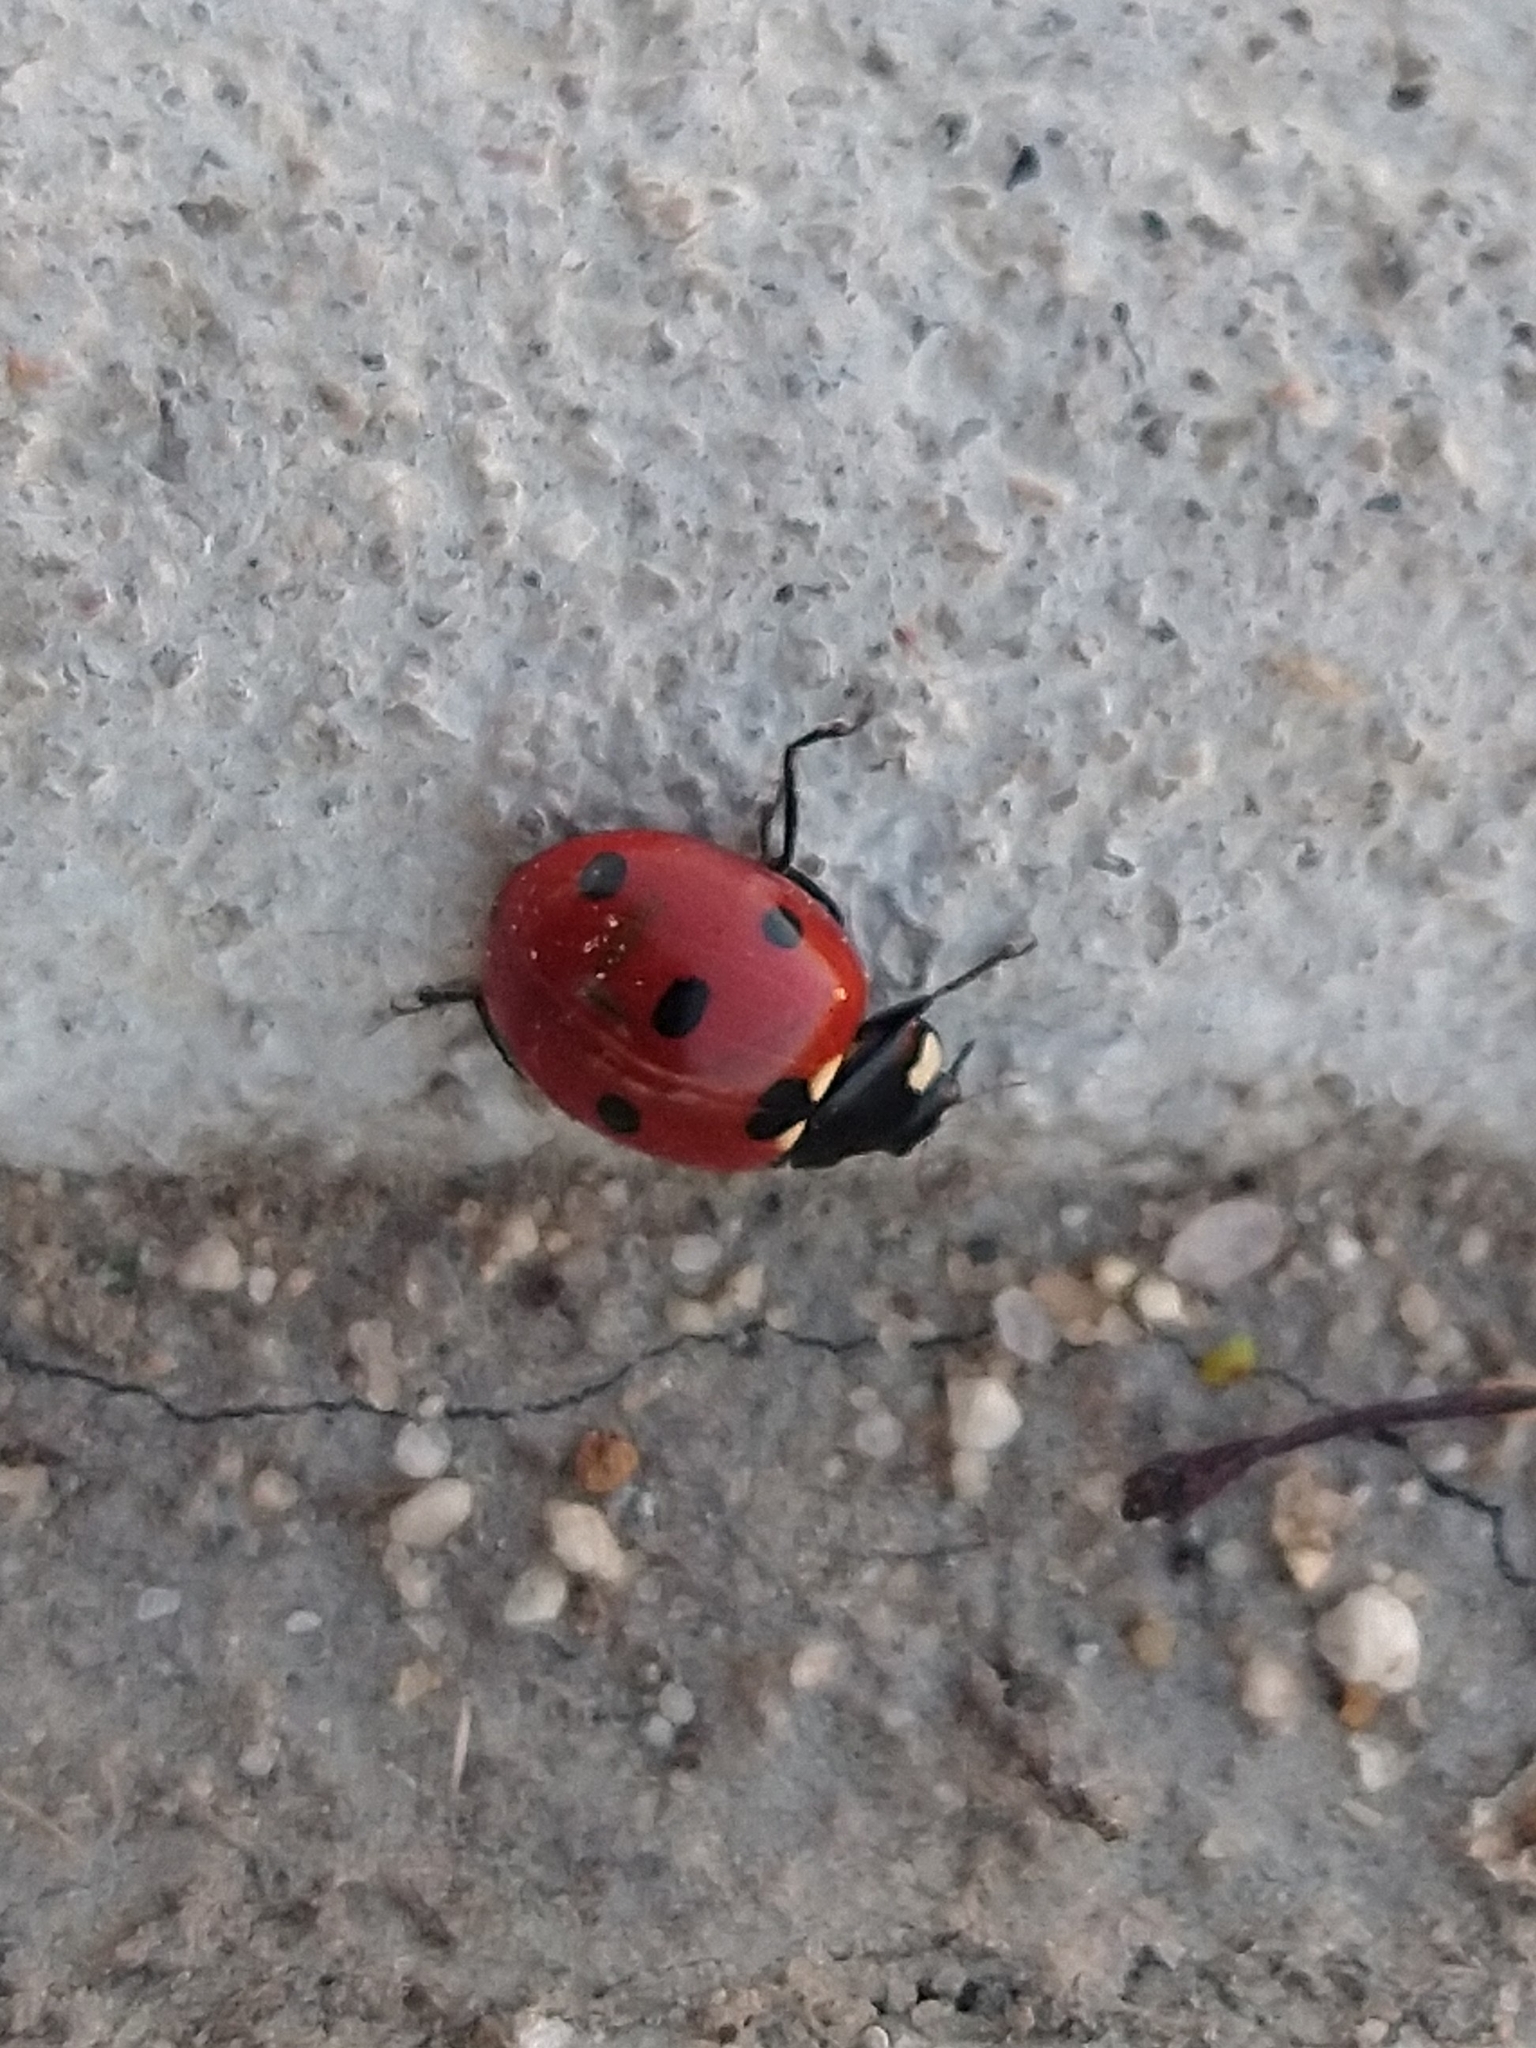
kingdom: Animalia
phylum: Arthropoda
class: Insecta
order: Coleoptera
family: Coccinellidae
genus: Coccinella
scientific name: Coccinella septempunctata
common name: Sevenspotted lady beetle
